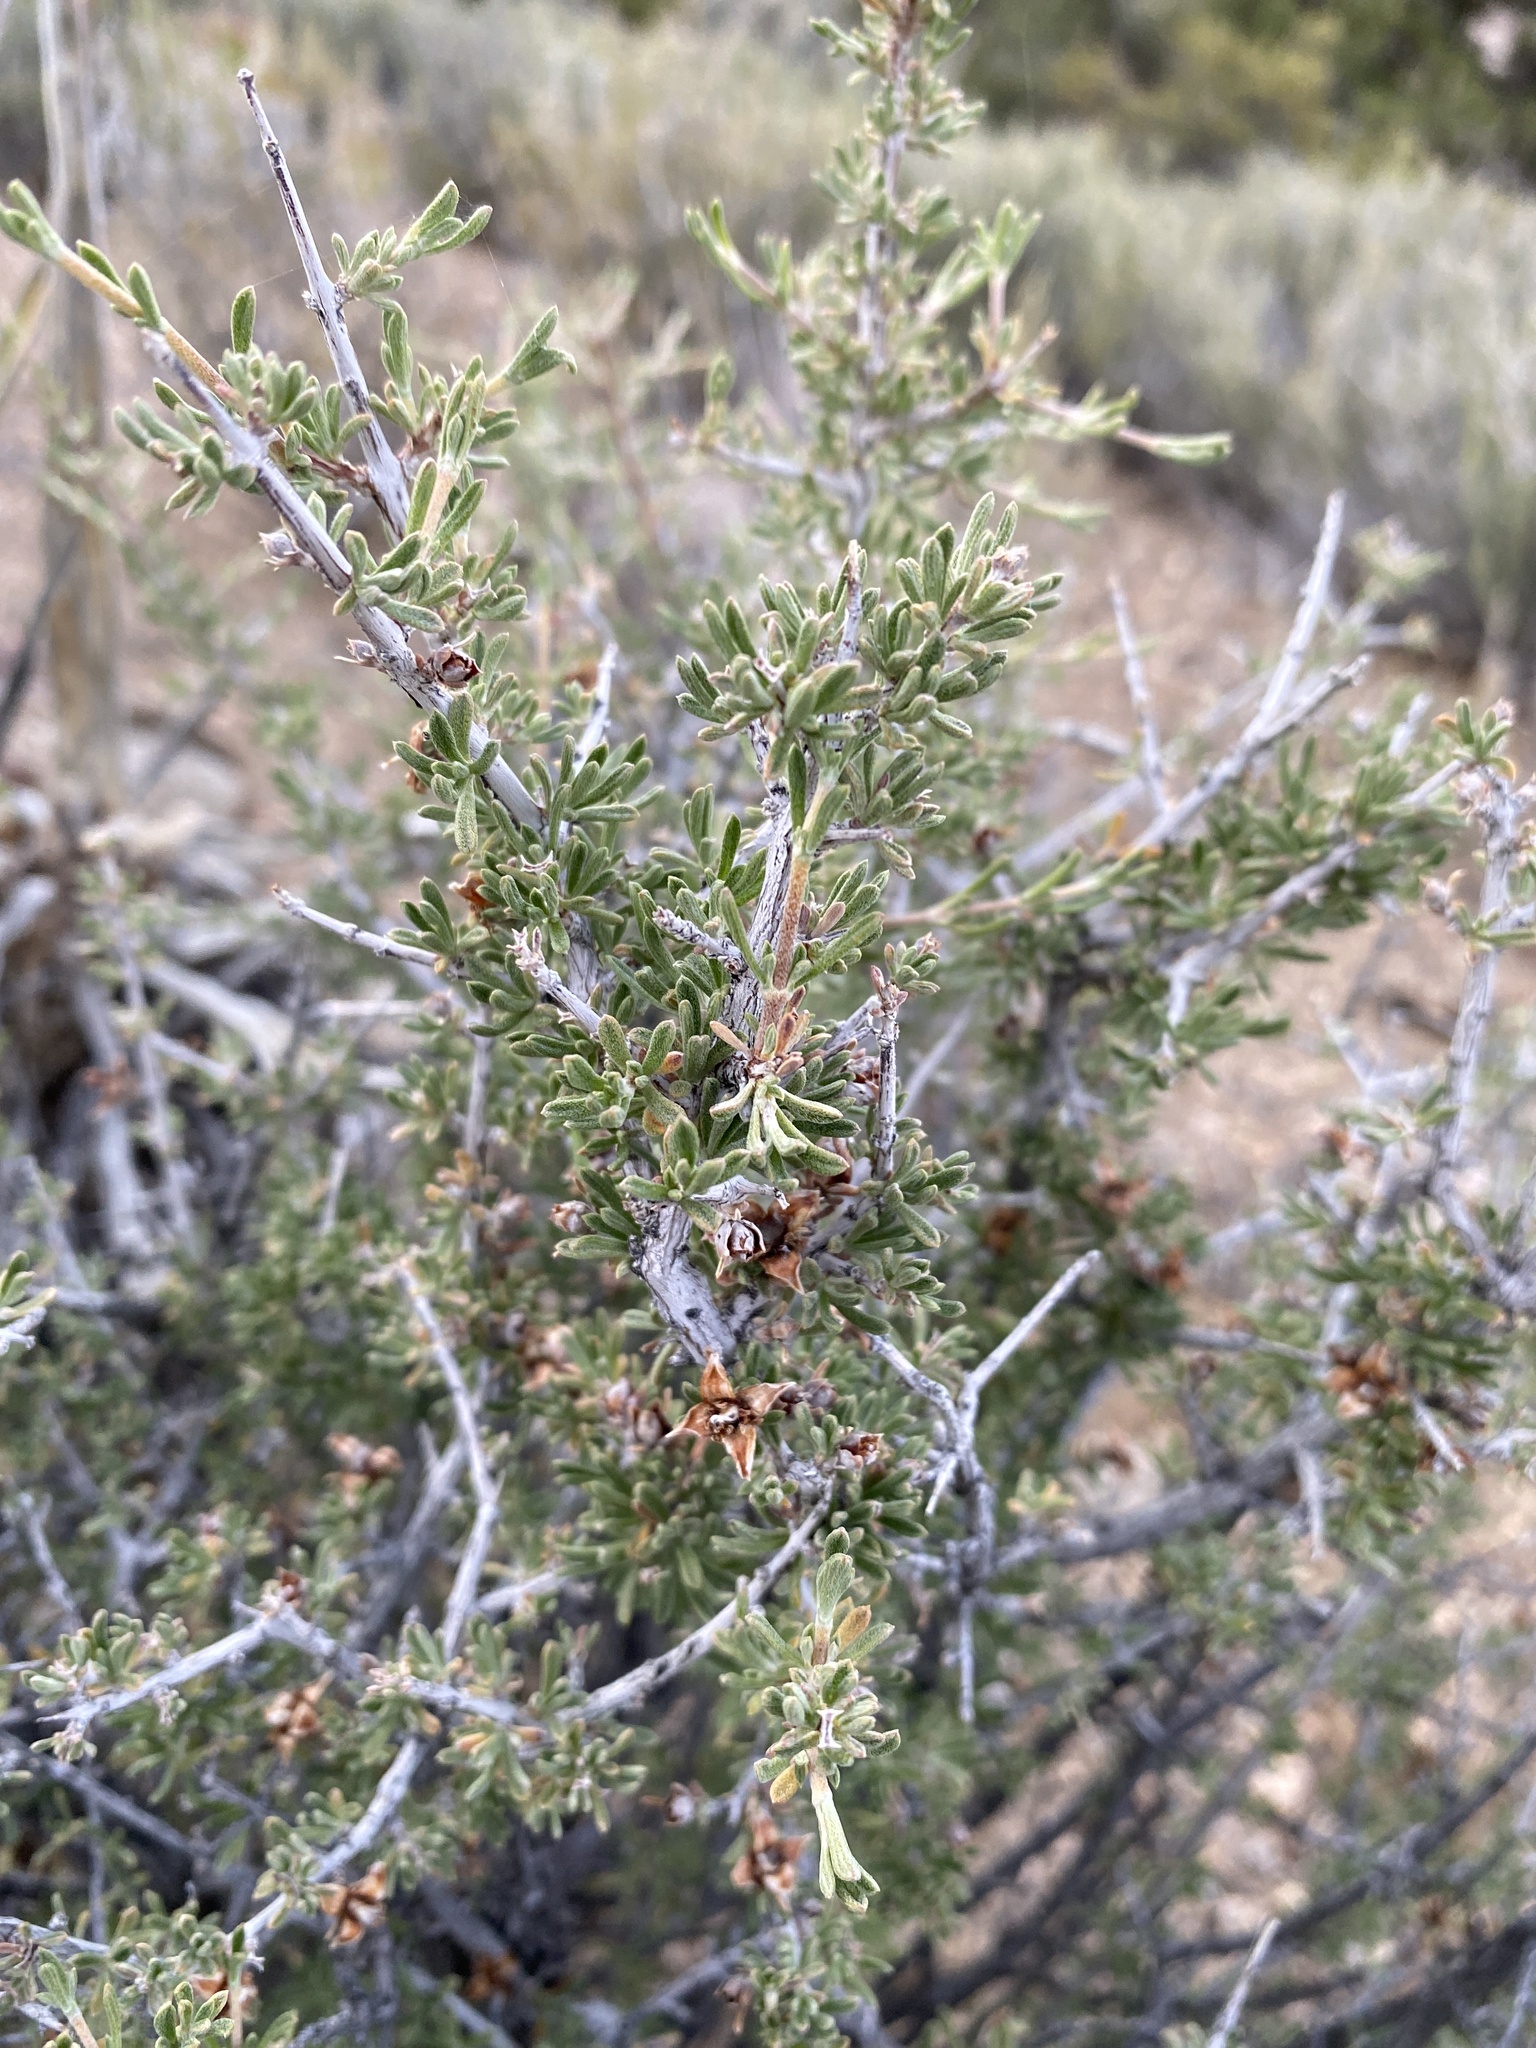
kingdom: Plantae
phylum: Tracheophyta
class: Magnoliopsida
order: Rosales
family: Rosaceae
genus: Coleogyne
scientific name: Coleogyne ramosissima
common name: Blackbrush
